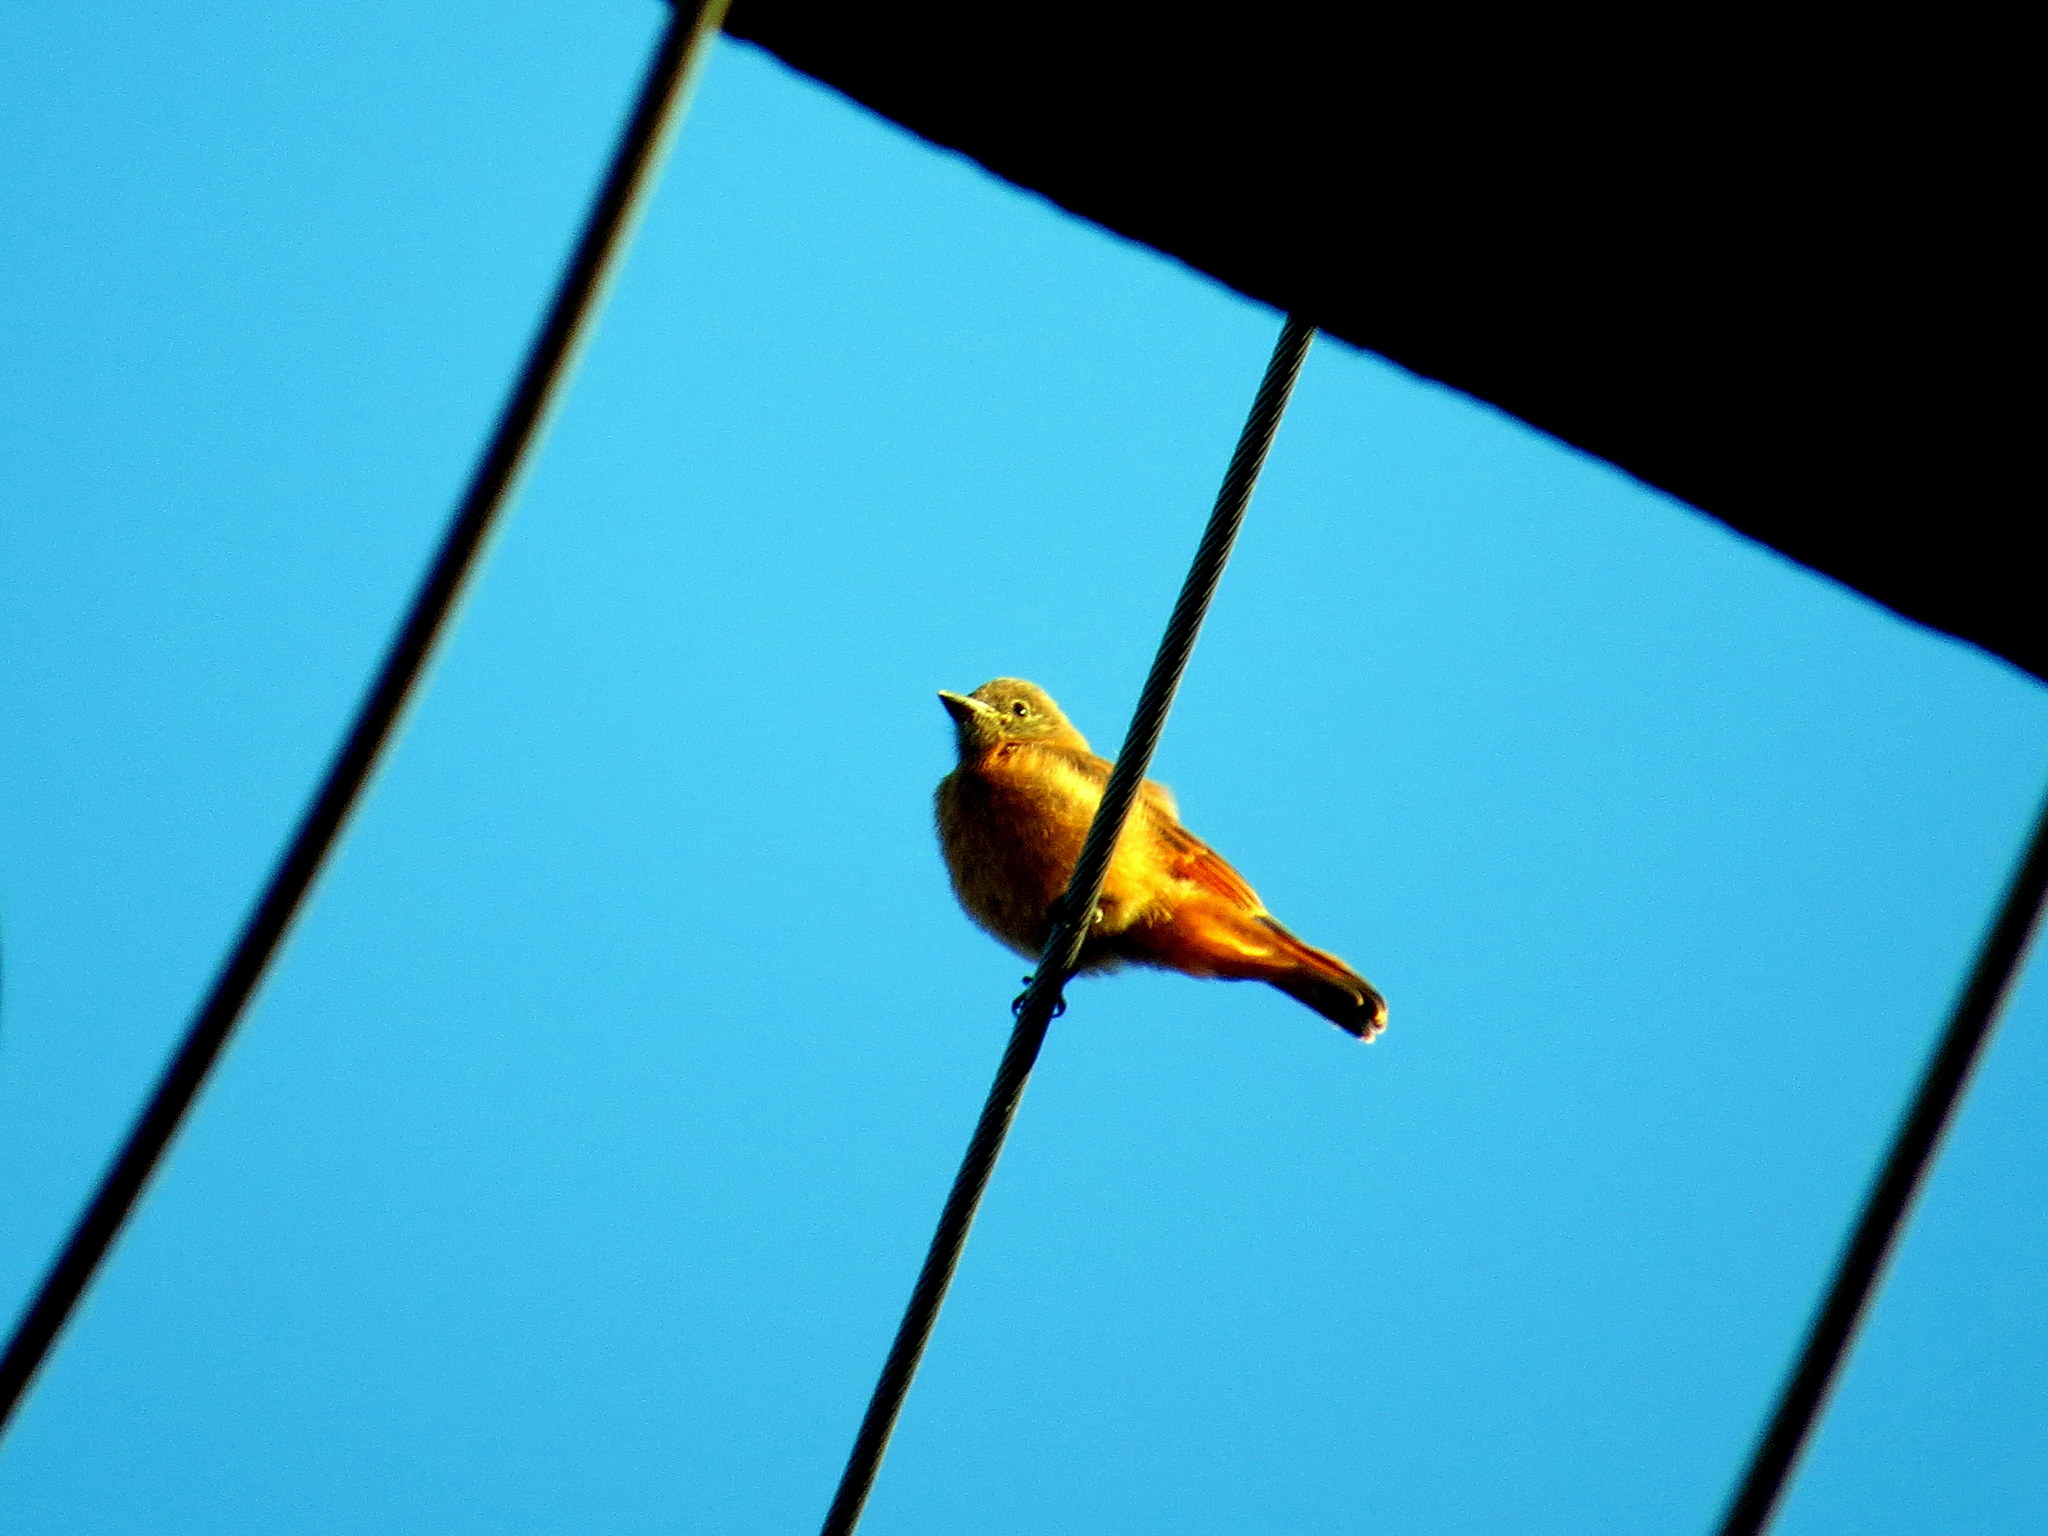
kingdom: Animalia
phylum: Chordata
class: Aves
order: Passeriformes
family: Tyrannidae
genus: Hirundinea
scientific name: Hirundinea ferruginea
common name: Cliff flycatcher
